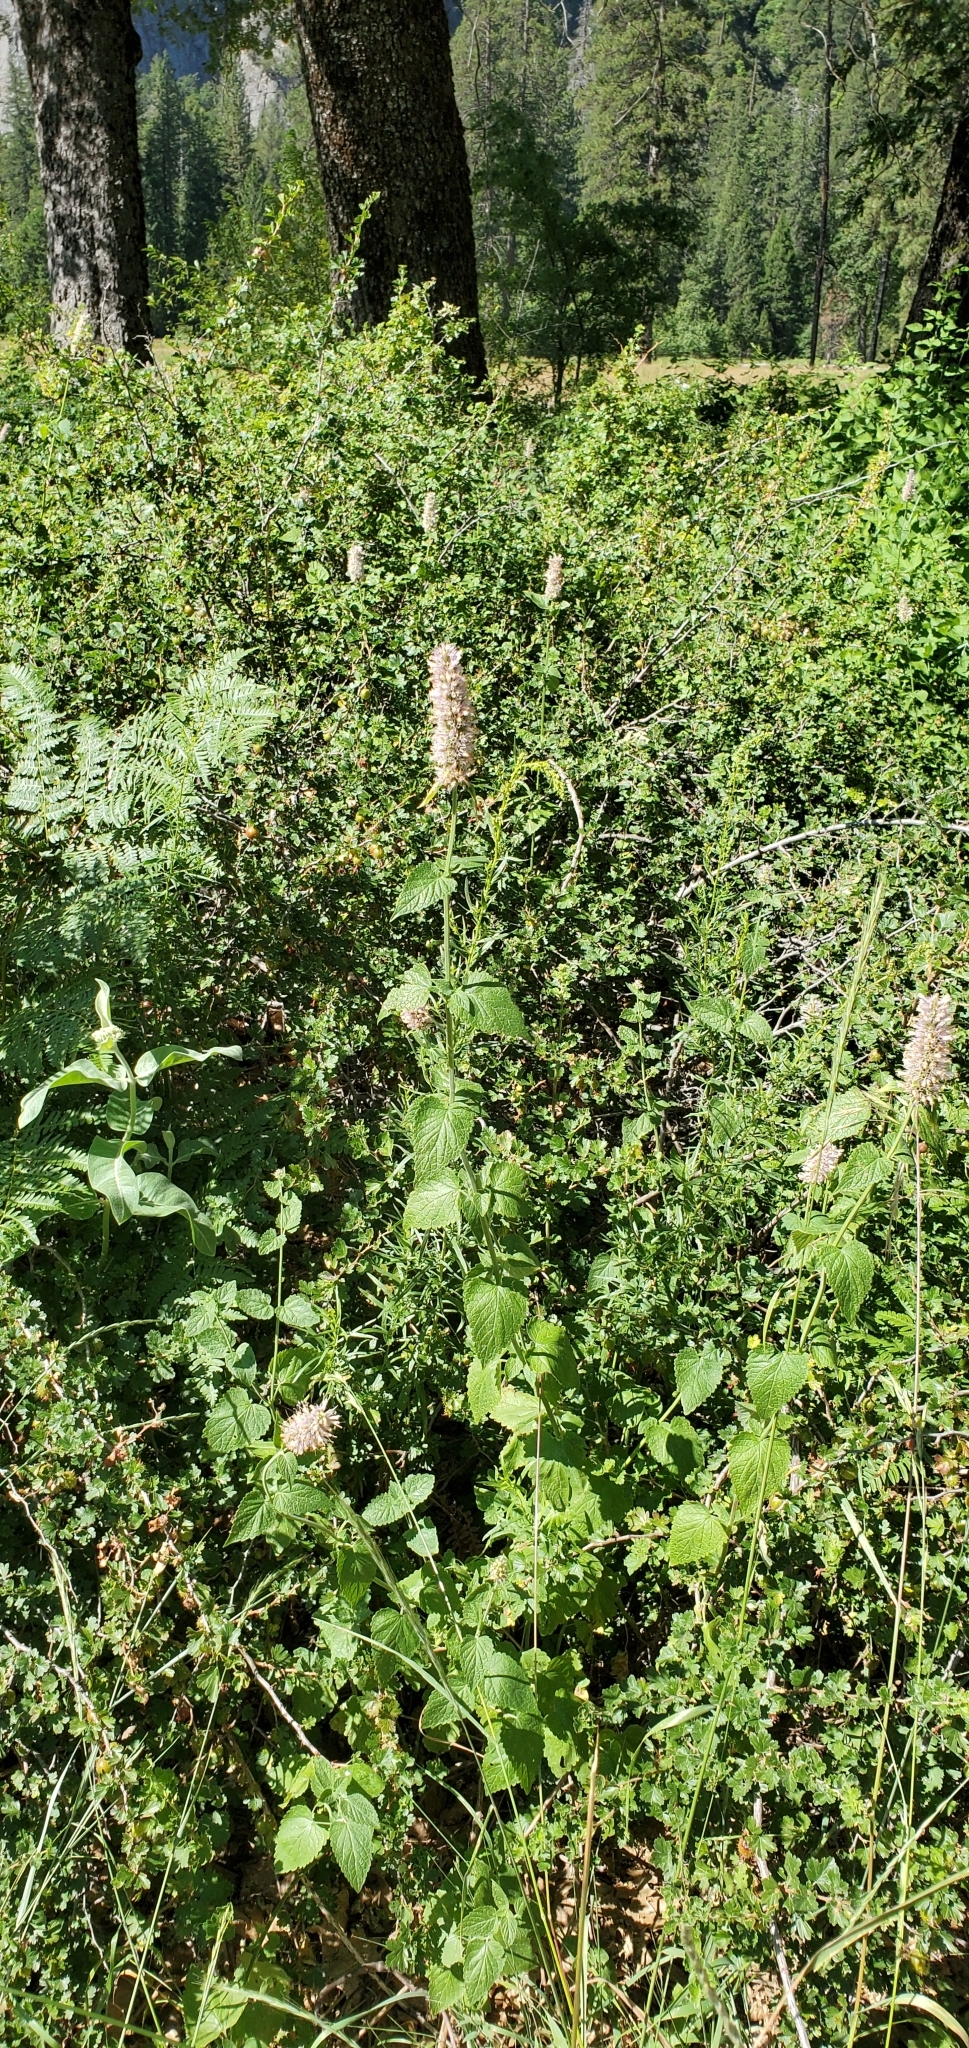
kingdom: Plantae
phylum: Tracheophyta
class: Magnoliopsida
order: Lamiales
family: Lamiaceae
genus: Agastache
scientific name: Agastache urticifolia
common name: Horsemint giant hyssop
